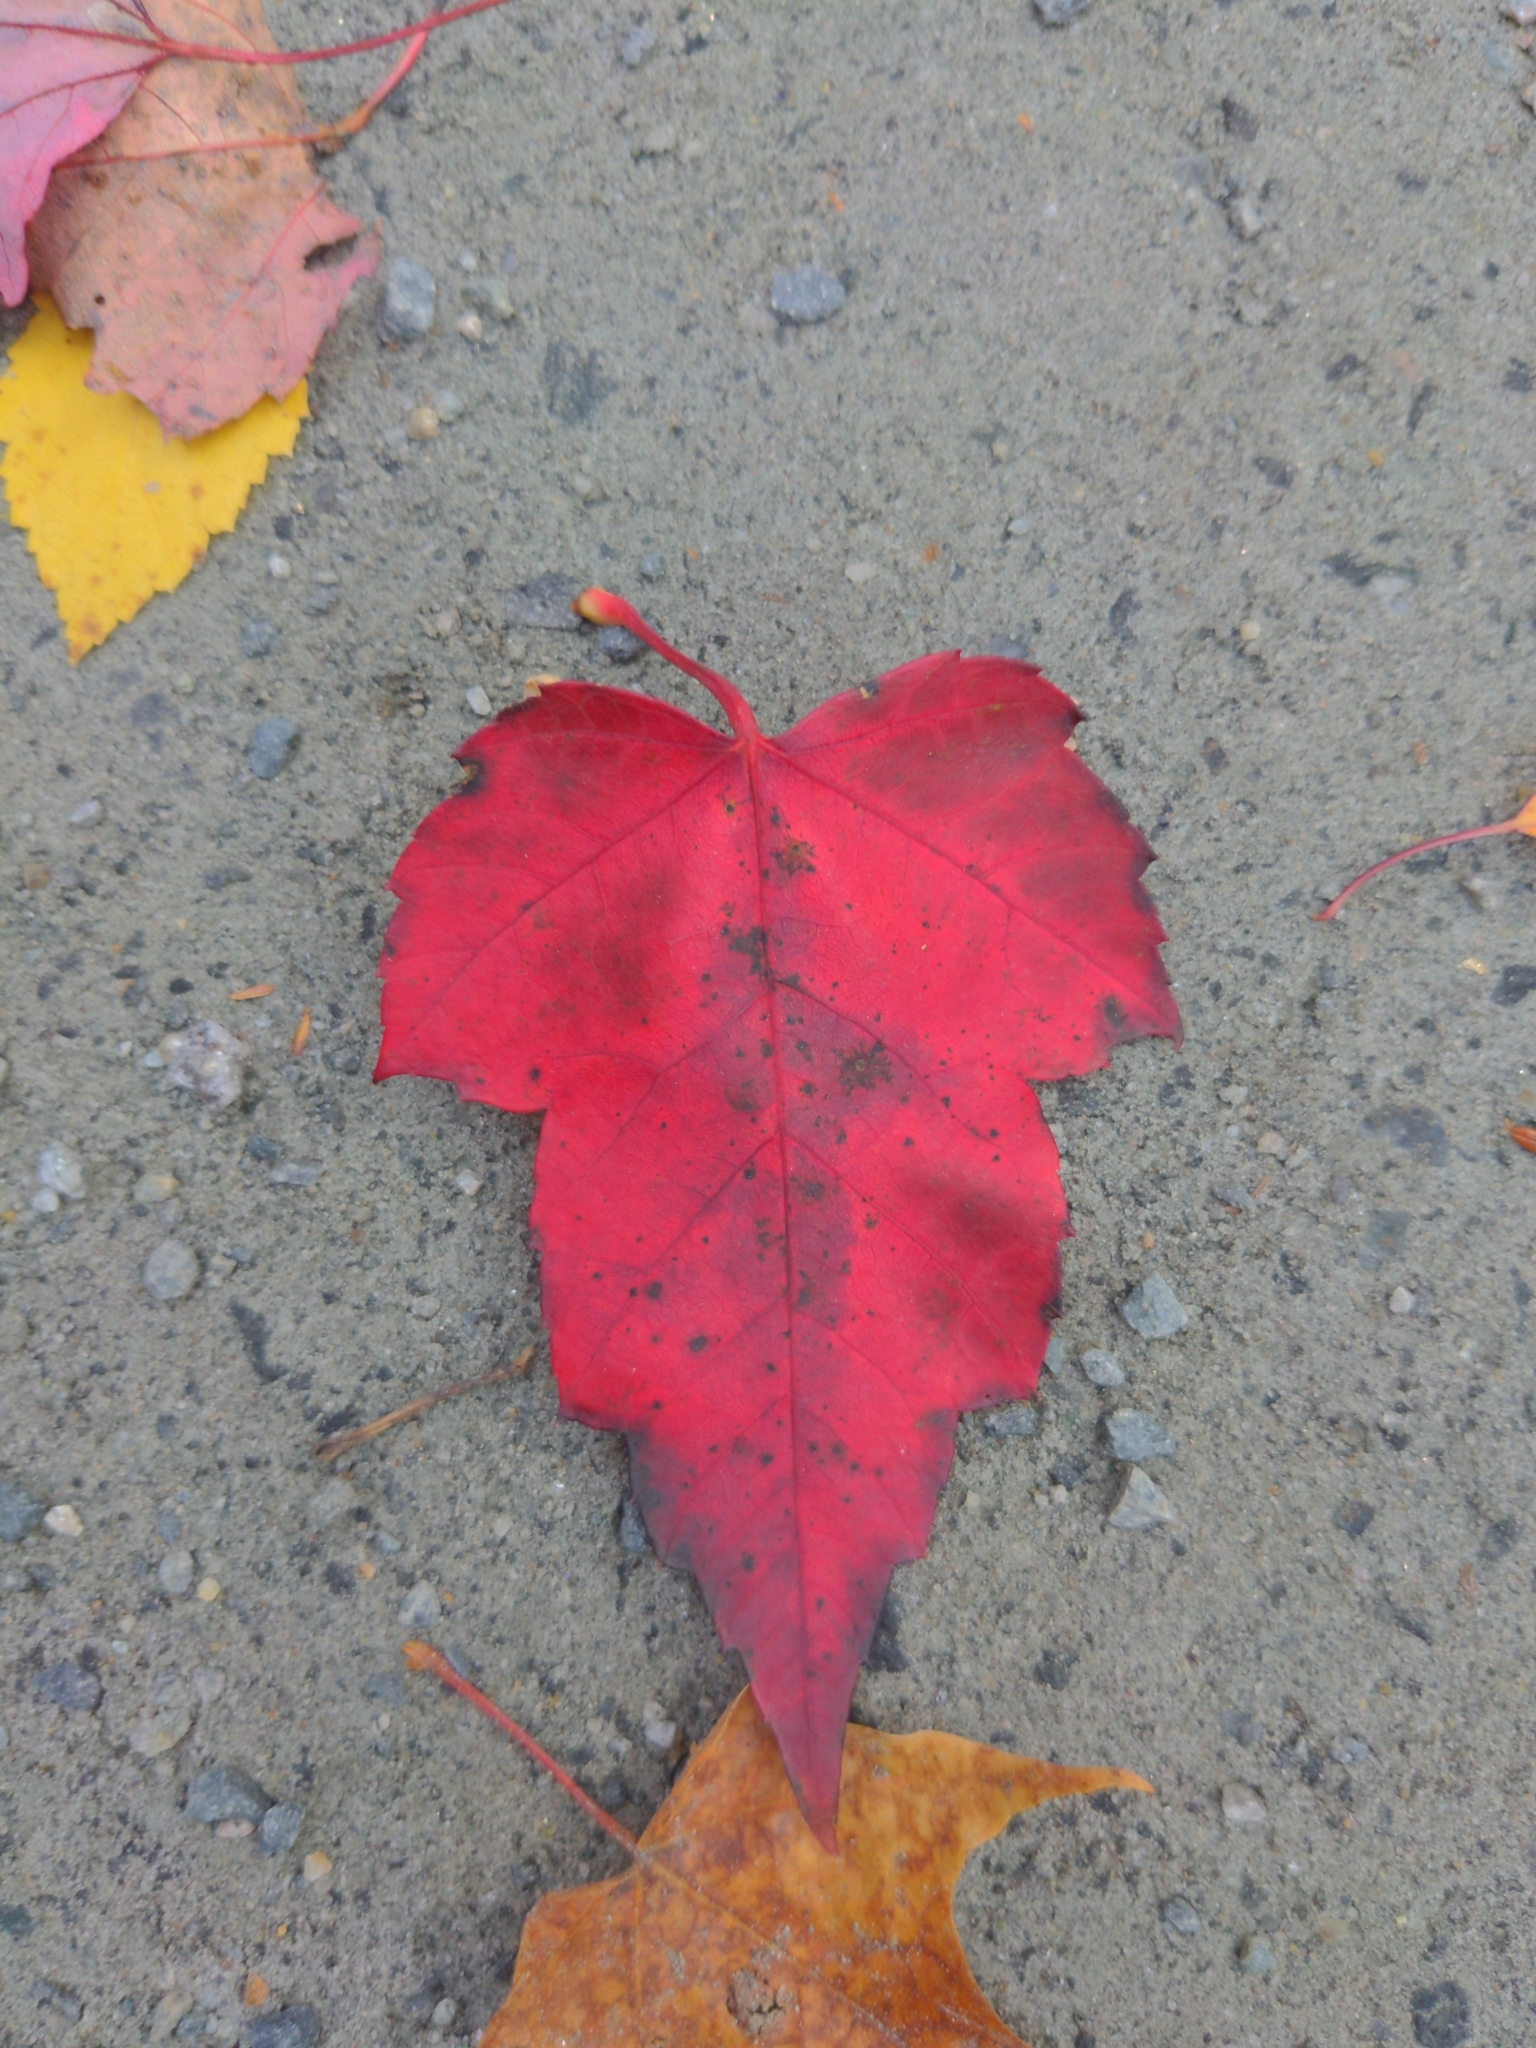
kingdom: Plantae
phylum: Tracheophyta
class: Magnoliopsida
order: Sapindales
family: Sapindaceae
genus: Acer
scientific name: Acer rubrum
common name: Red maple
